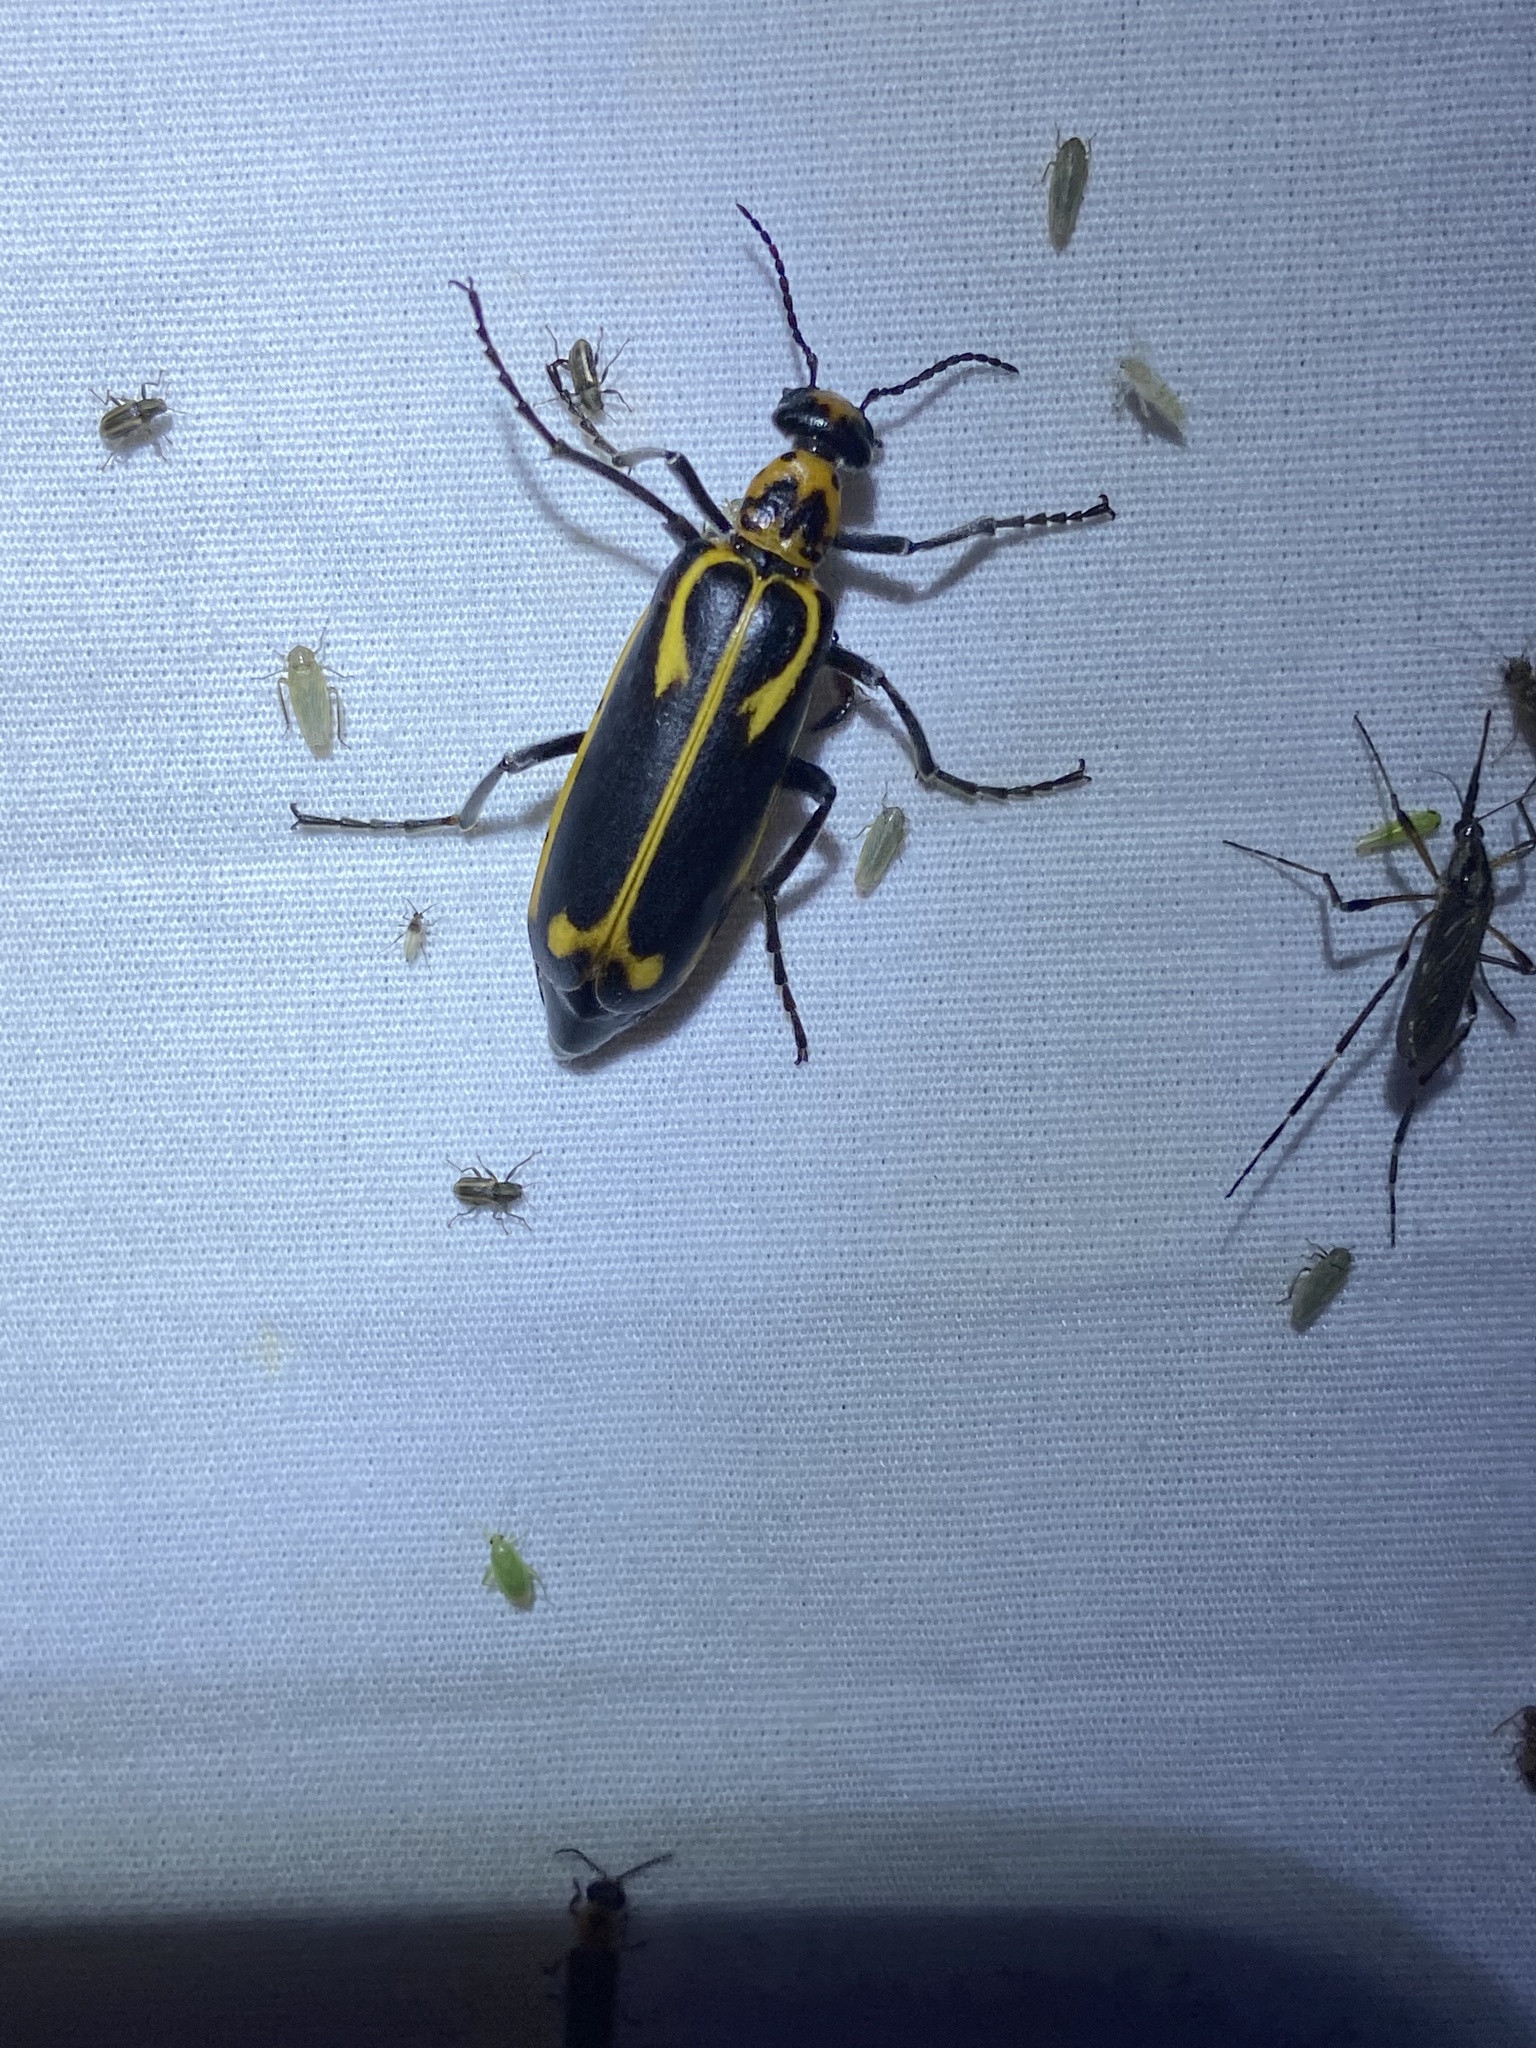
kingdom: Animalia
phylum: Arthropoda
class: Insecta
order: Coleoptera
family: Meloidae
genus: Pyrota
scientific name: Pyrota insulata
